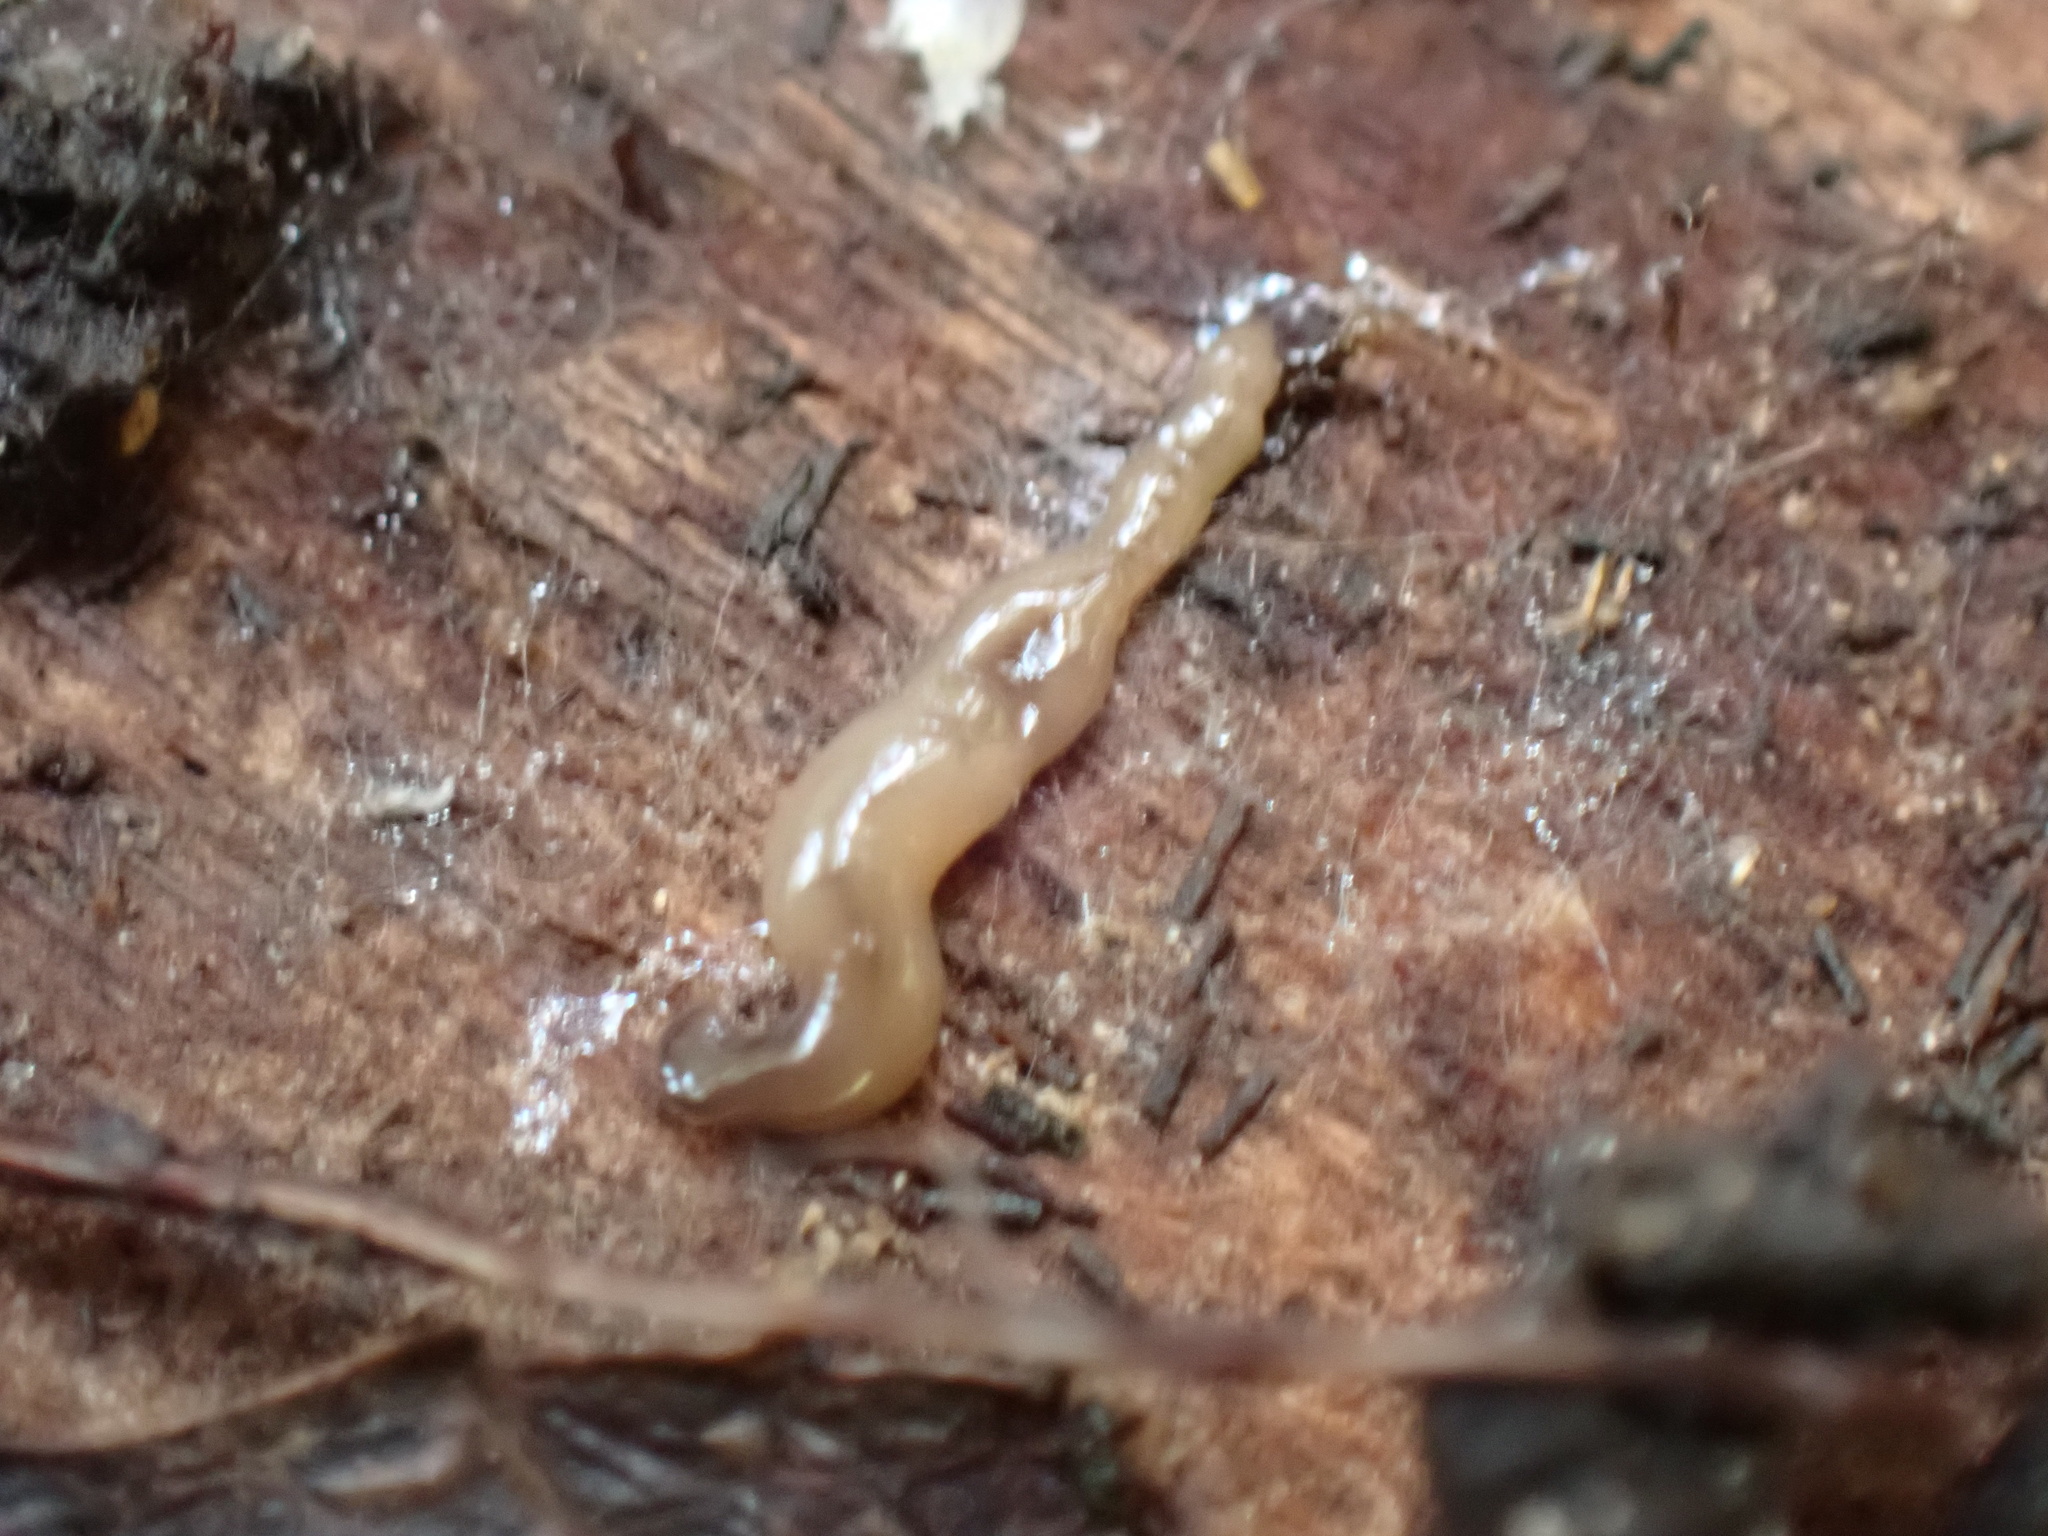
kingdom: Animalia
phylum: Platyhelminthes
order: Tricladida
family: Geoplanidae
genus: Bipalium
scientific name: Bipalium adventitium
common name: Land planarian
